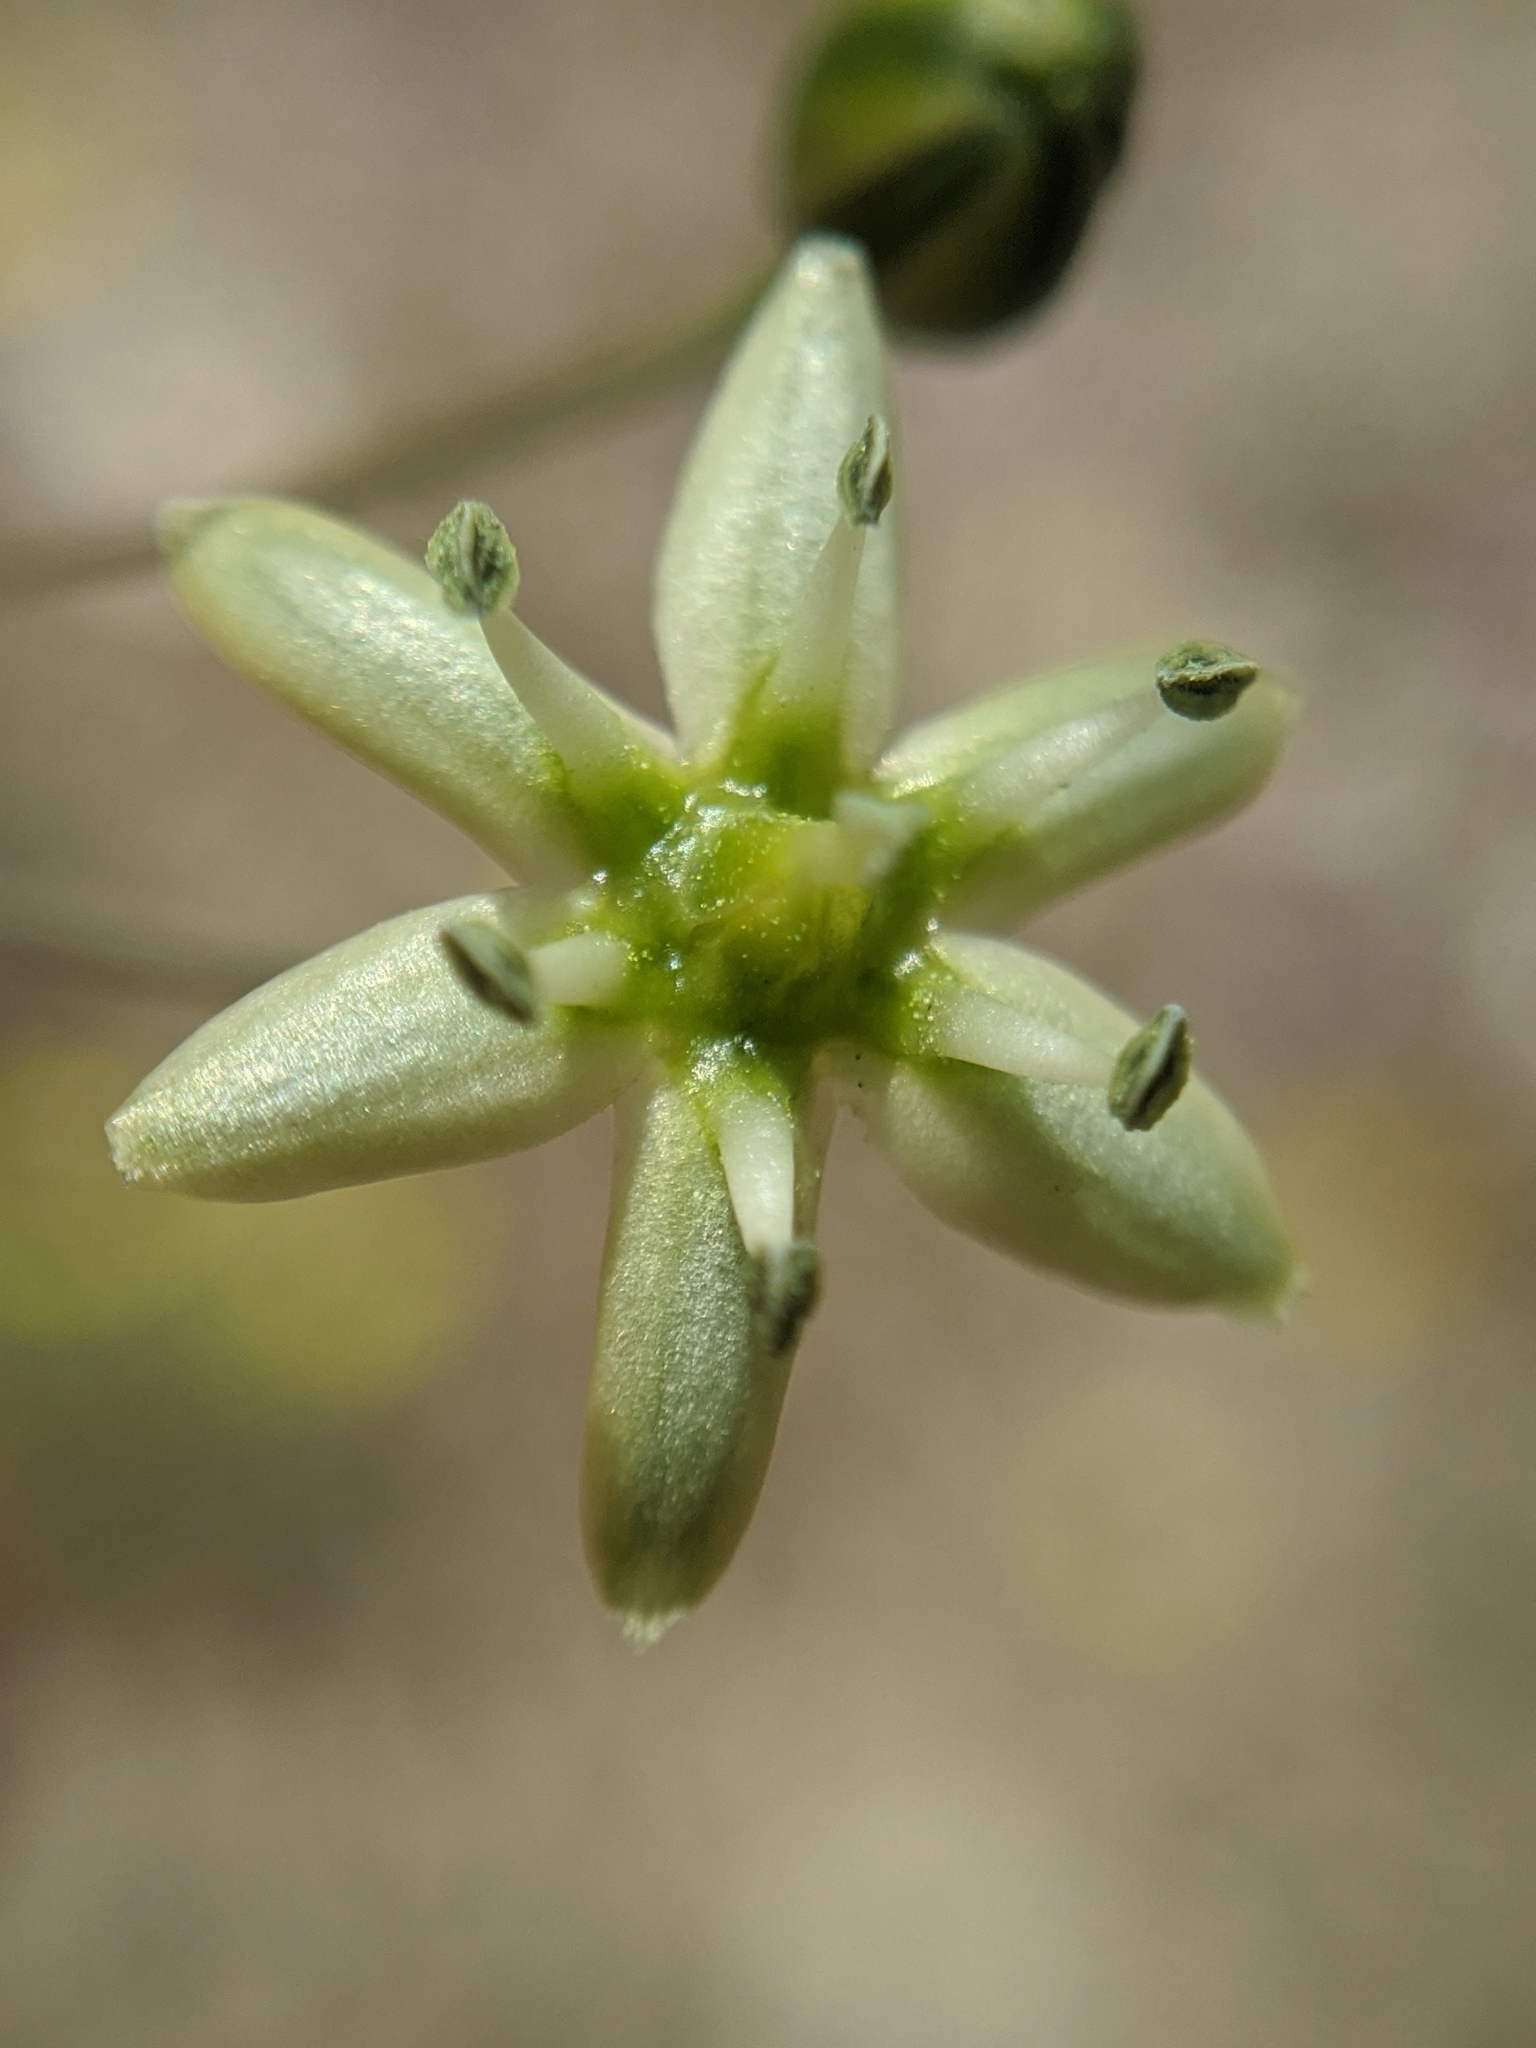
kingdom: Plantae
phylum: Tracheophyta
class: Liliopsida
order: Asparagales
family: Asparagaceae
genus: Muilla
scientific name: Muilla maritima
